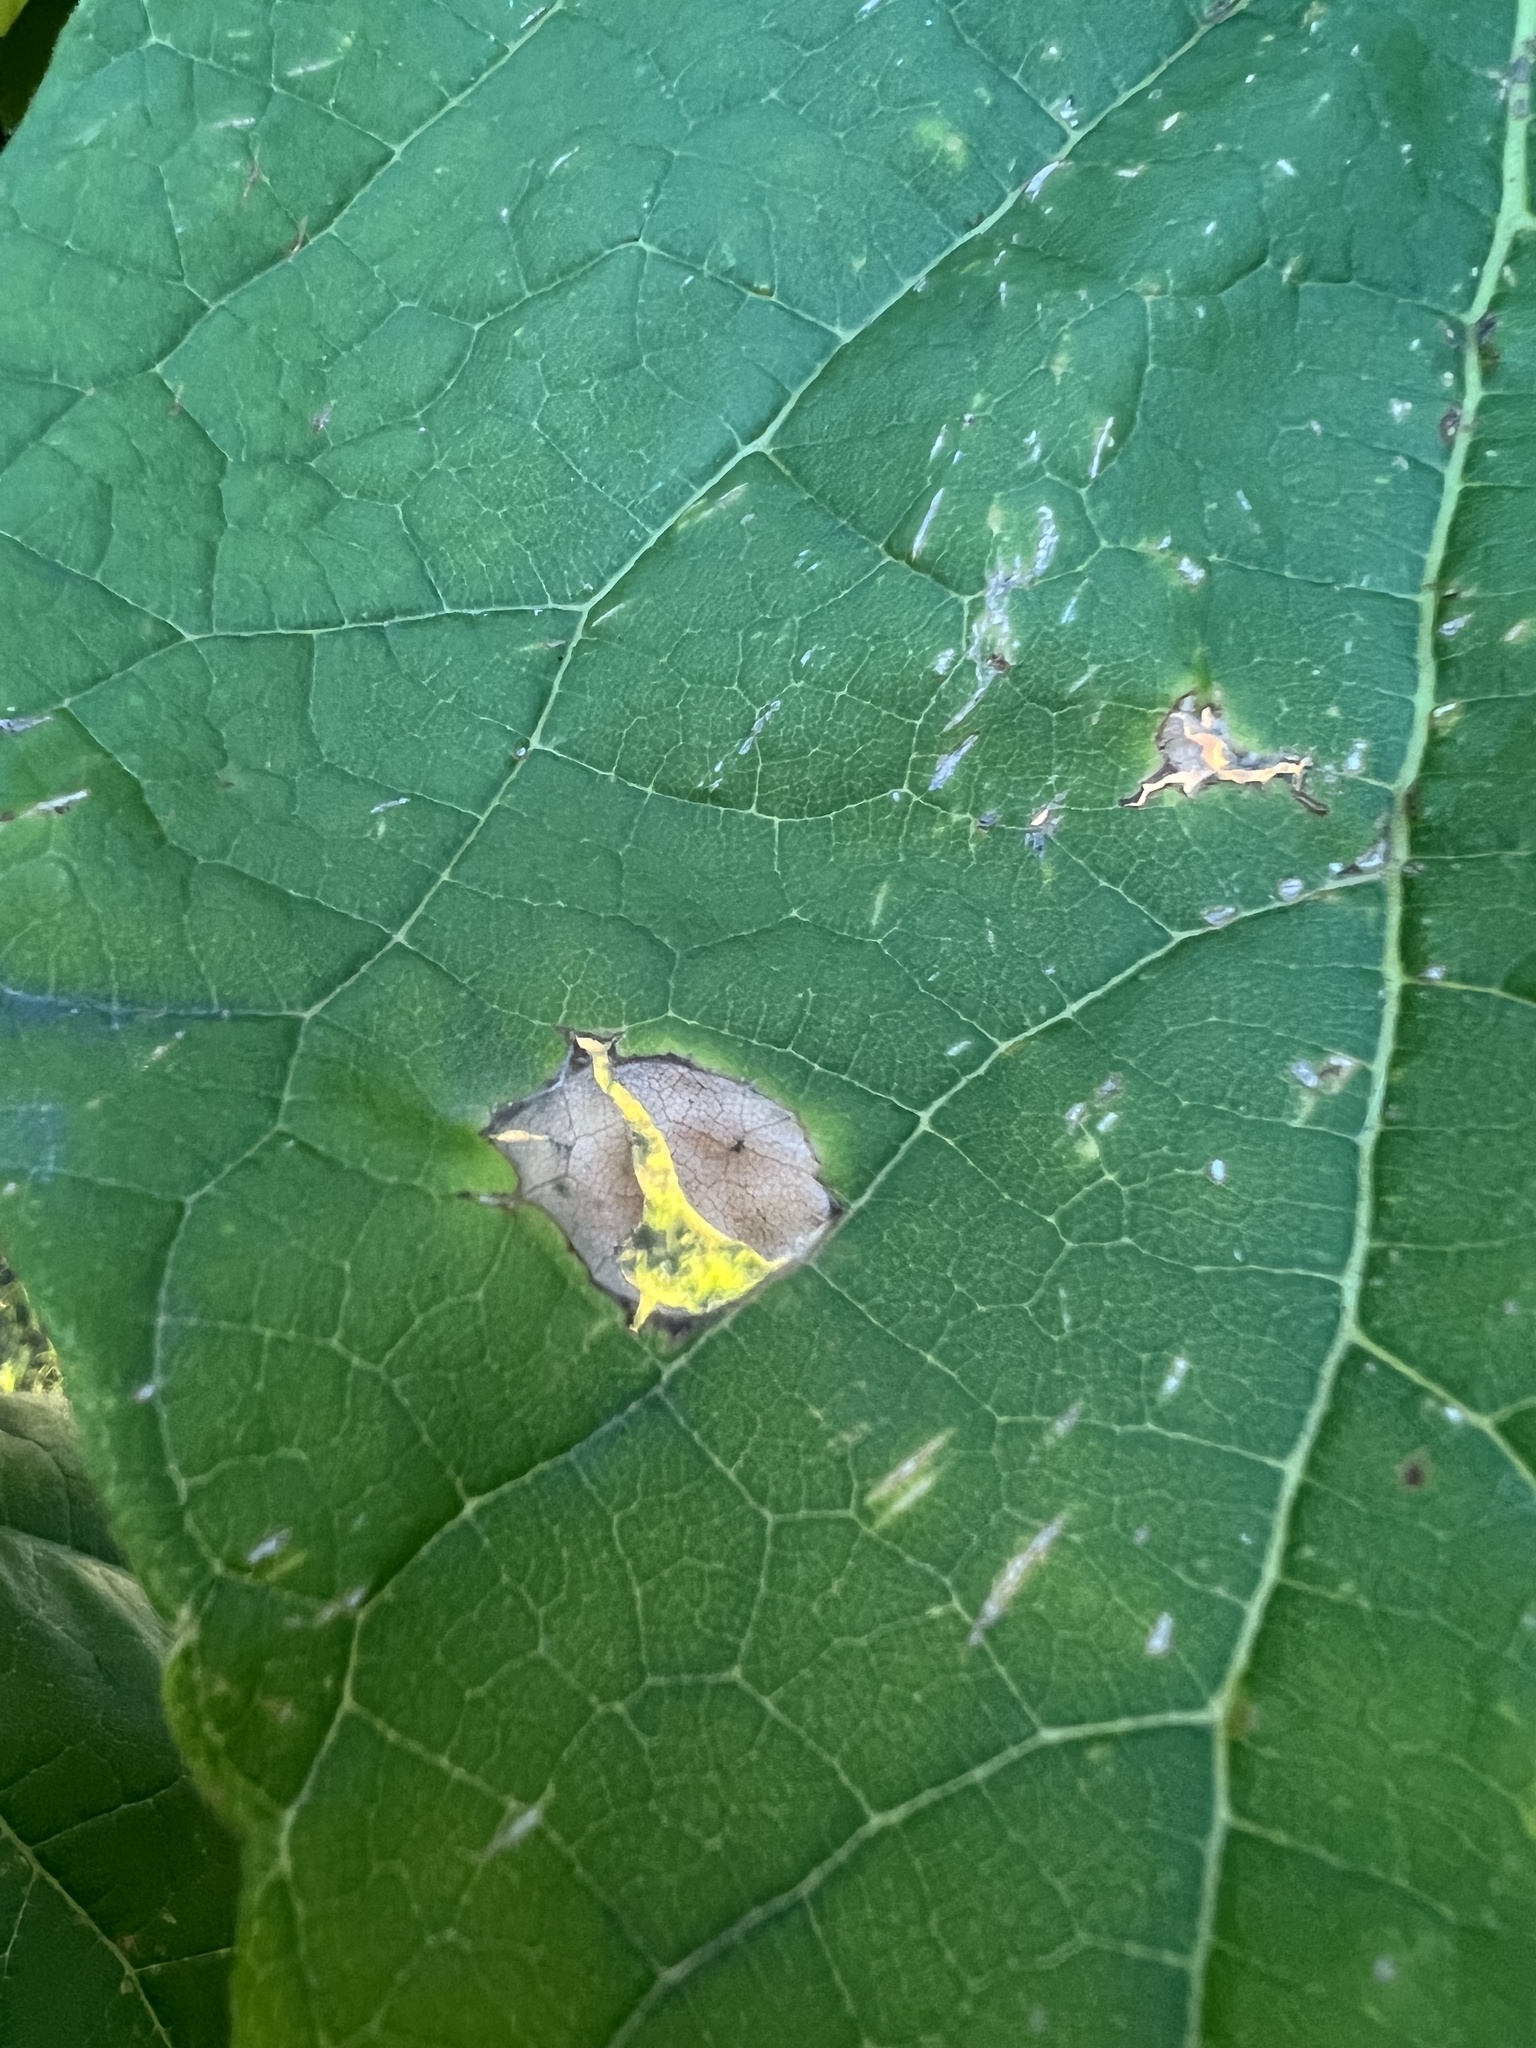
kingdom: Fungi
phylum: Ascomycota
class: Dothideomycetes
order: Pleosporales
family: Pleosporaceae
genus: Alternaria
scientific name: Alternaria catalpae
